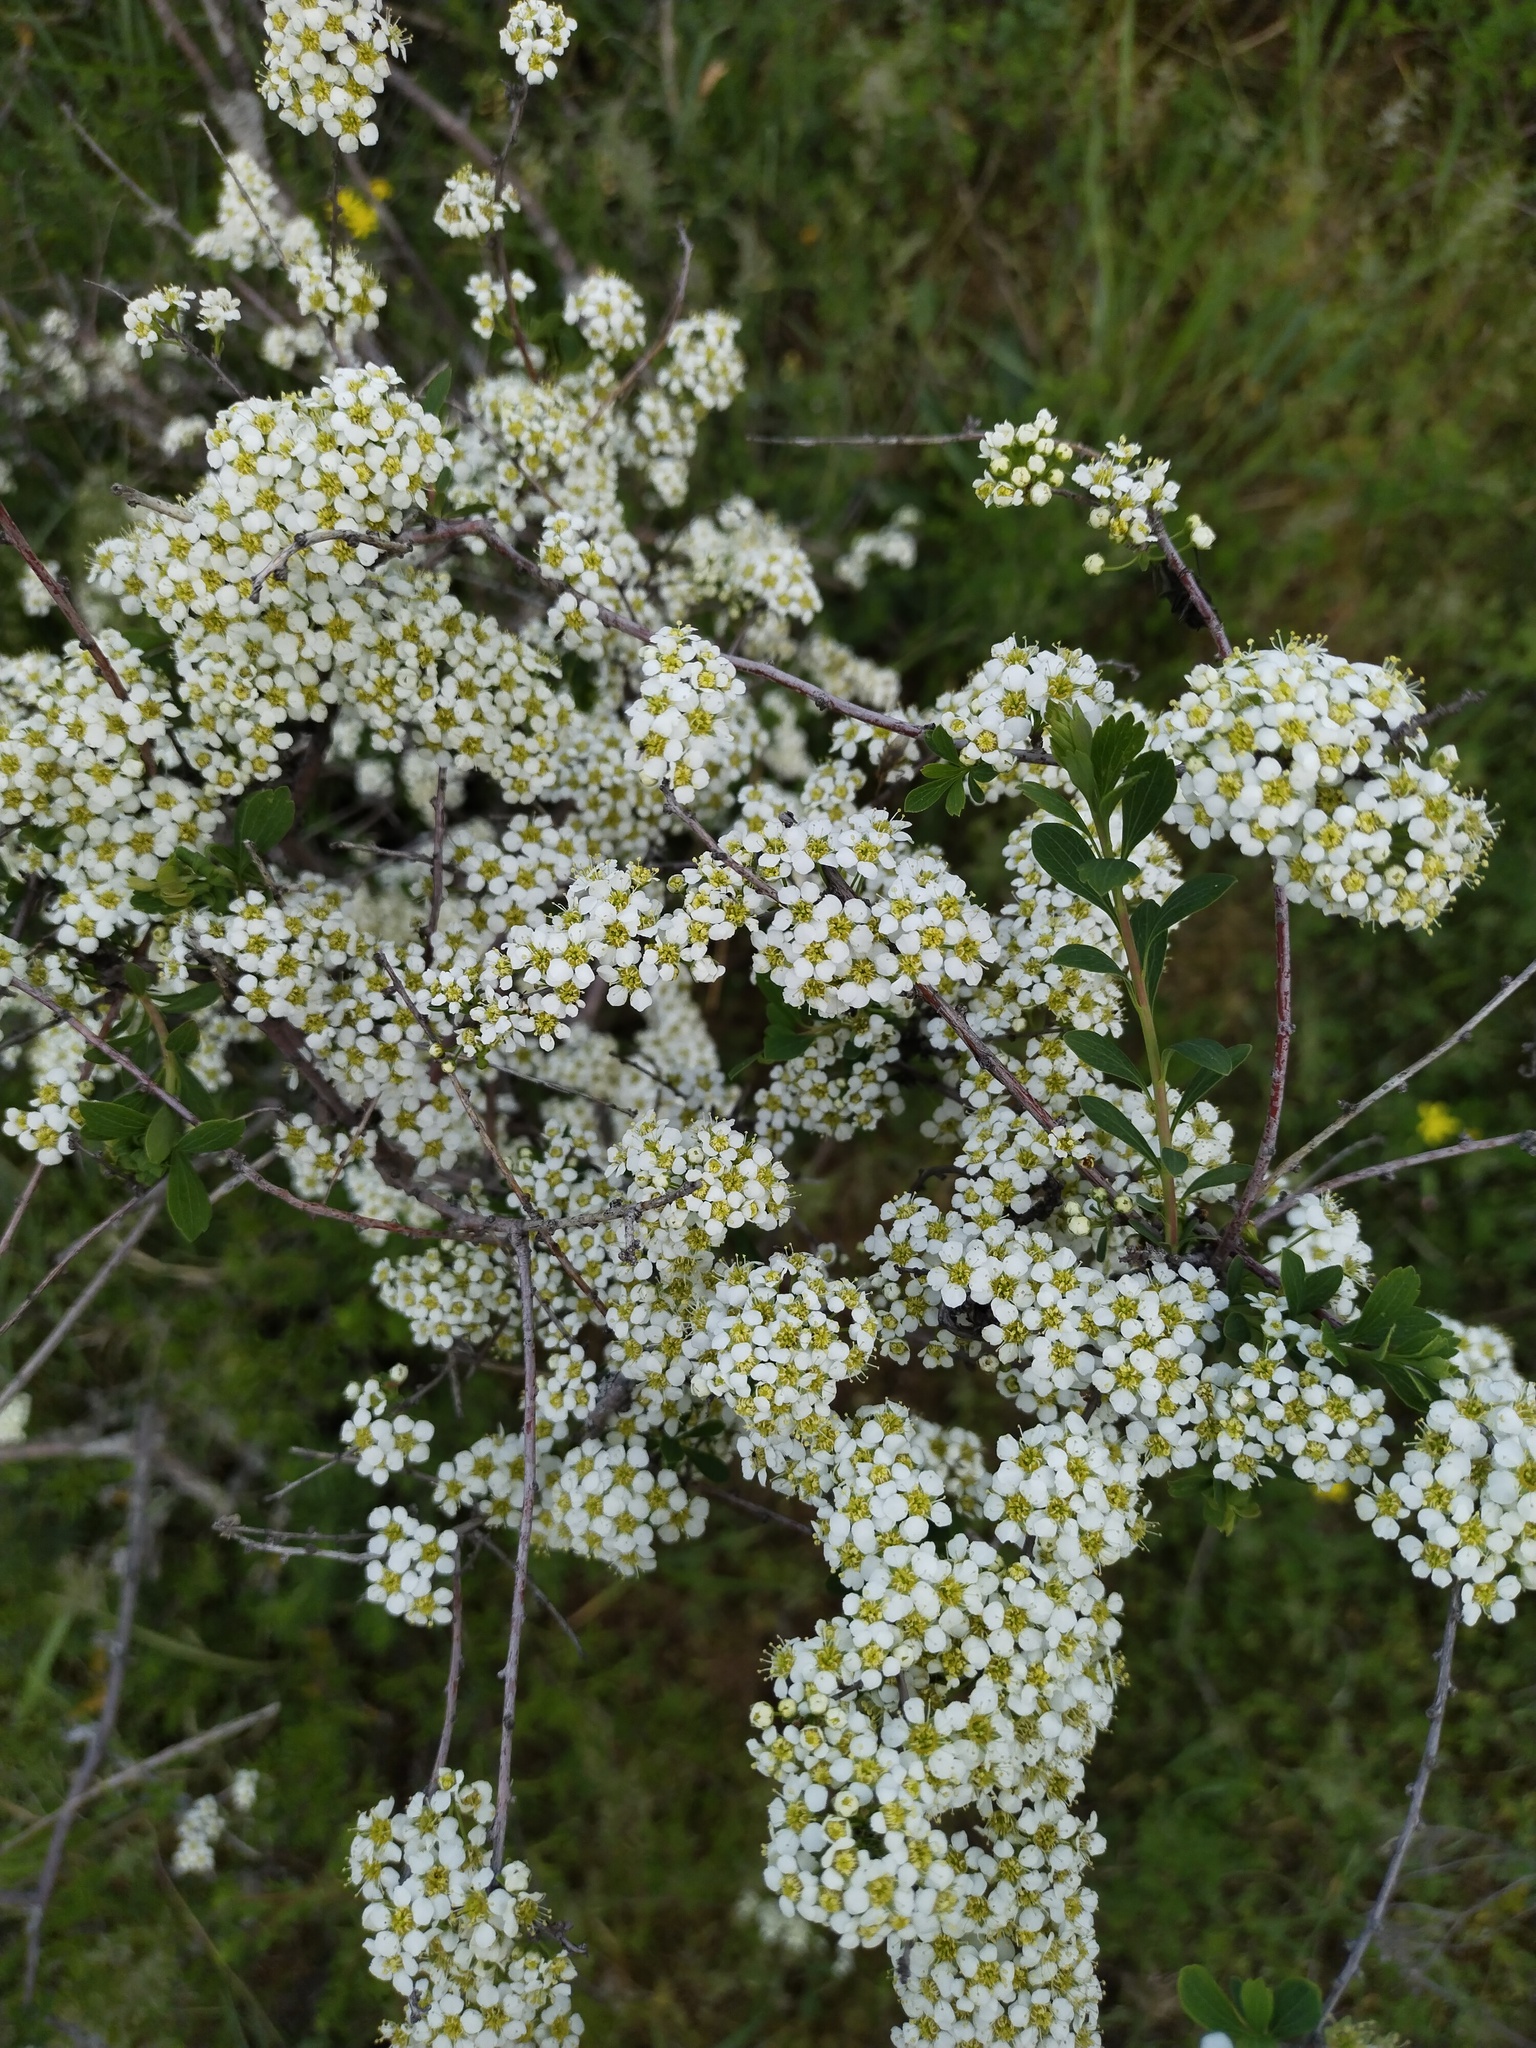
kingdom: Plantae
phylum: Tracheophyta
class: Magnoliopsida
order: Rosales
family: Rosaceae
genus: Spiraea
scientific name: Spiraea hypericifolia
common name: Iberian spirea
